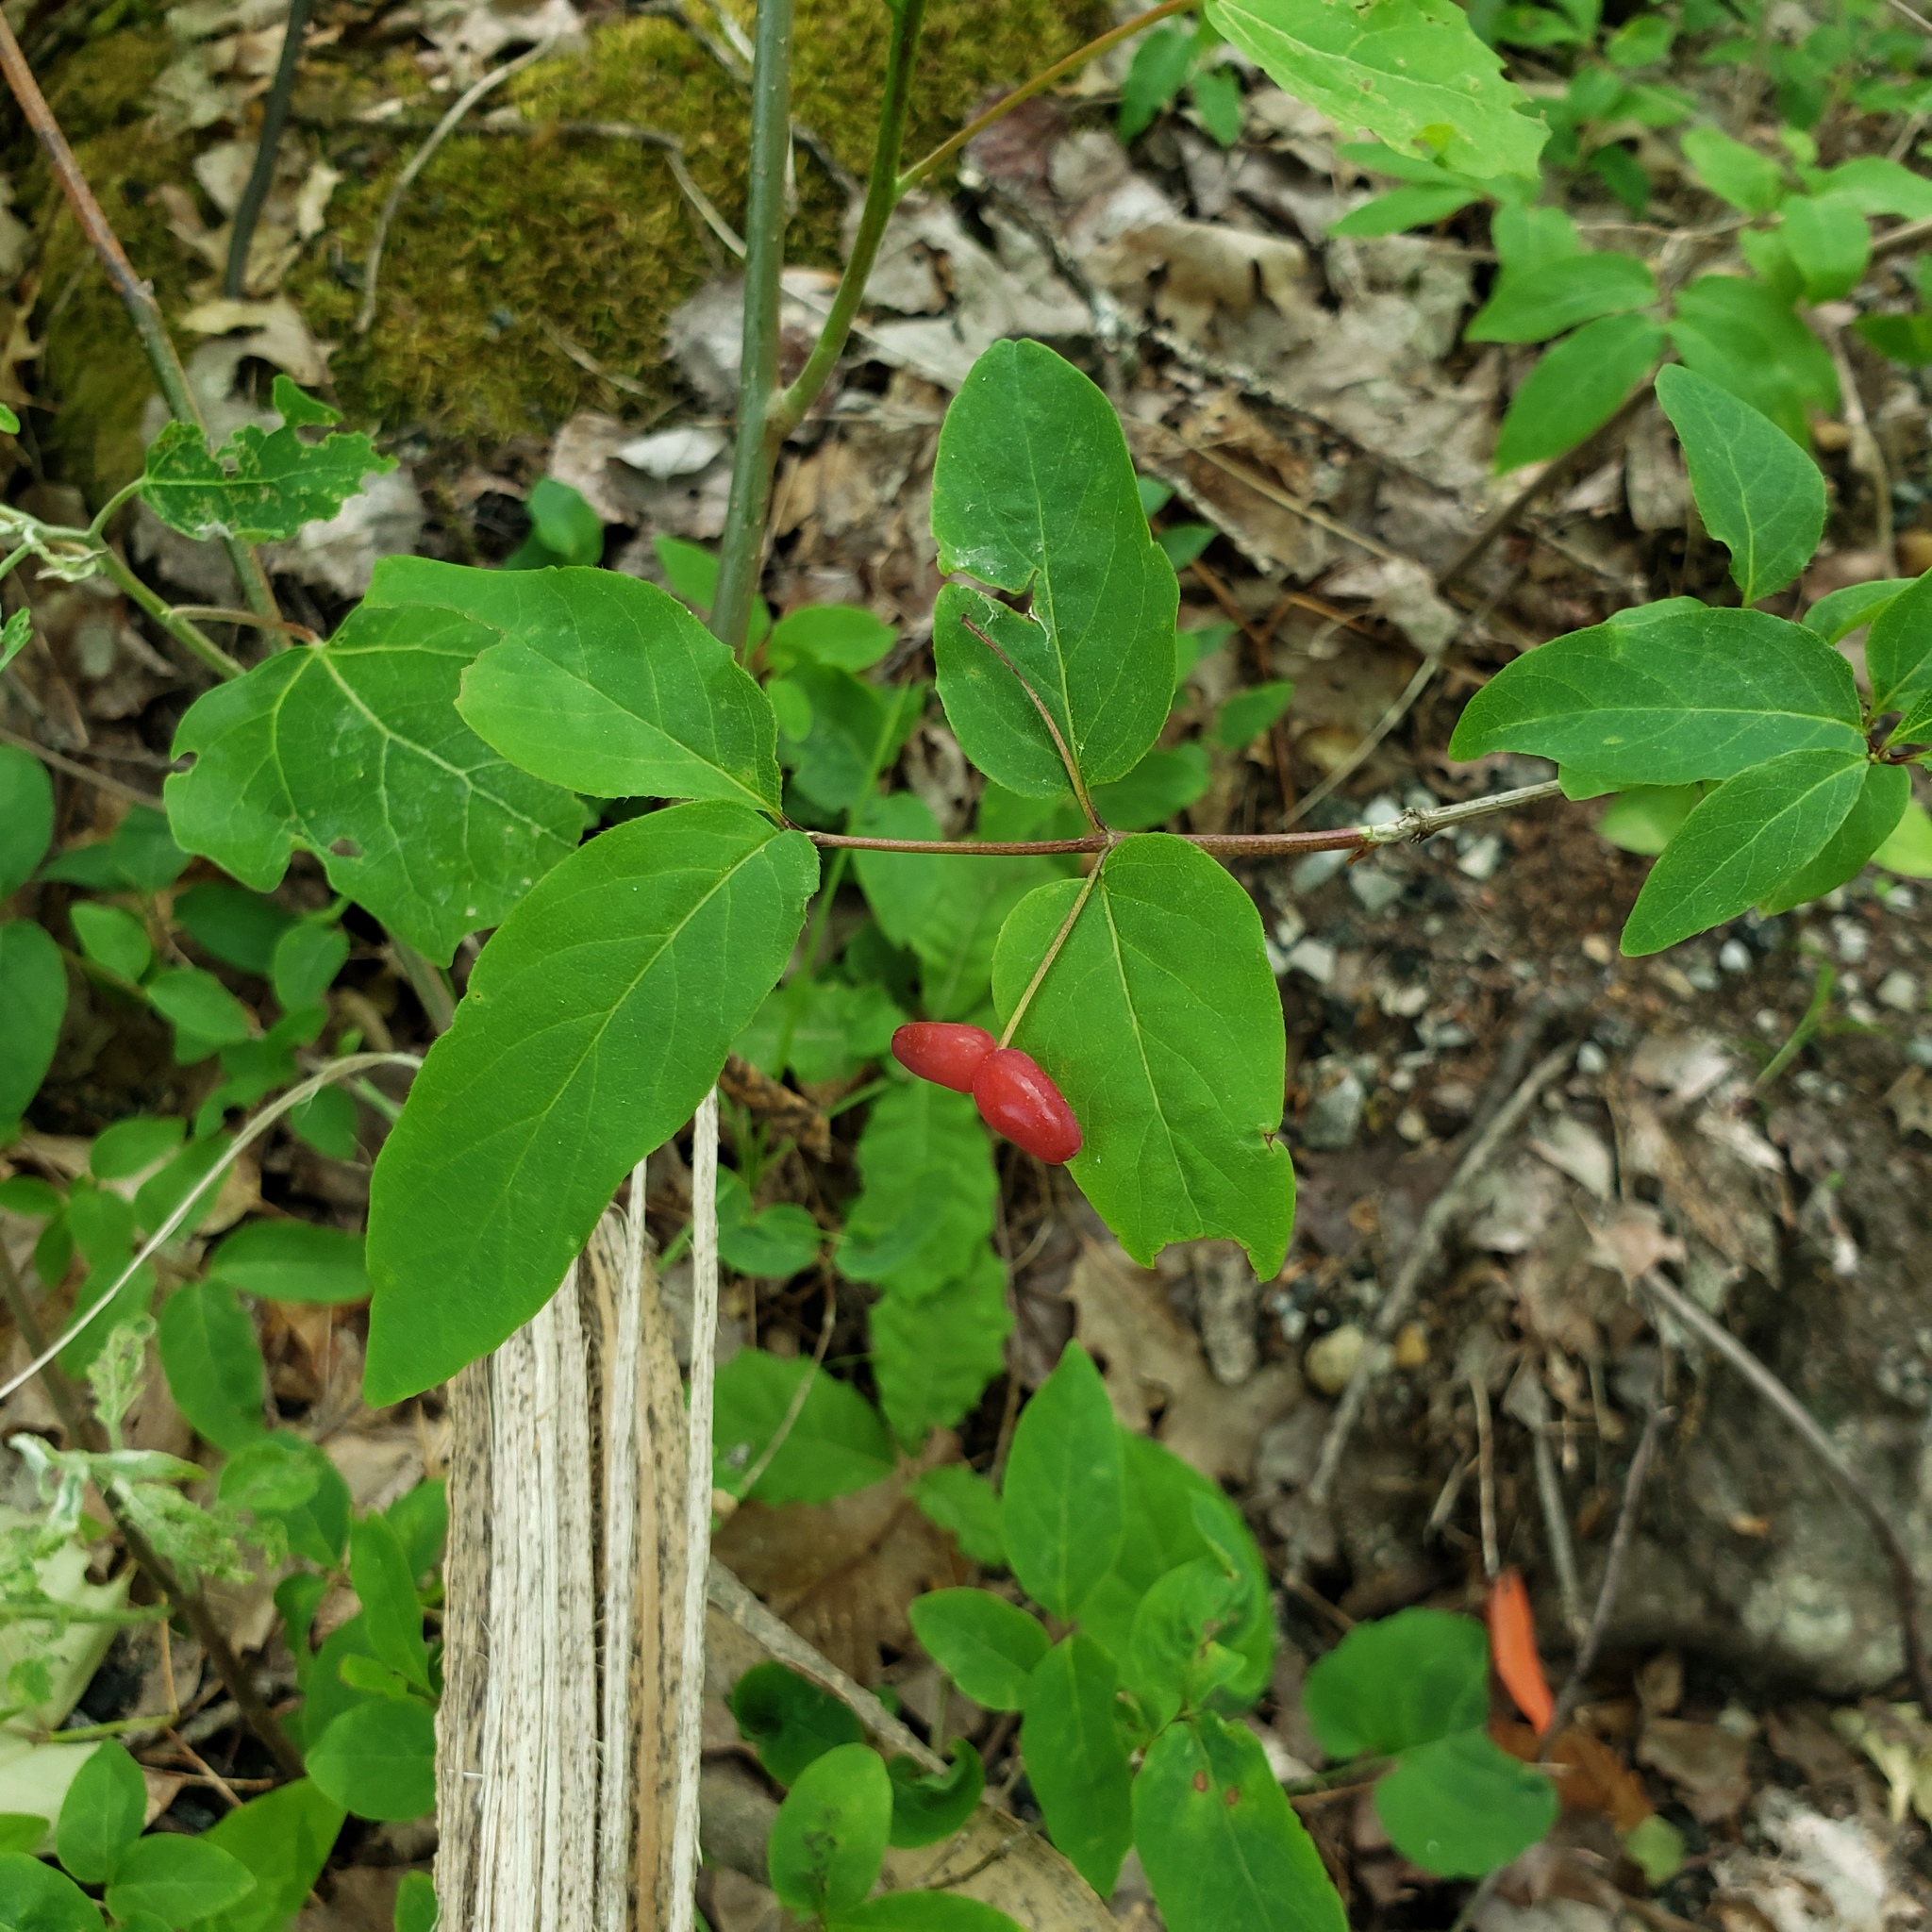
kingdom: Plantae
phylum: Tracheophyta
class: Magnoliopsida
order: Dipsacales
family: Caprifoliaceae
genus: Lonicera
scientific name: Lonicera canadensis
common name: American fly-honeysuckle
